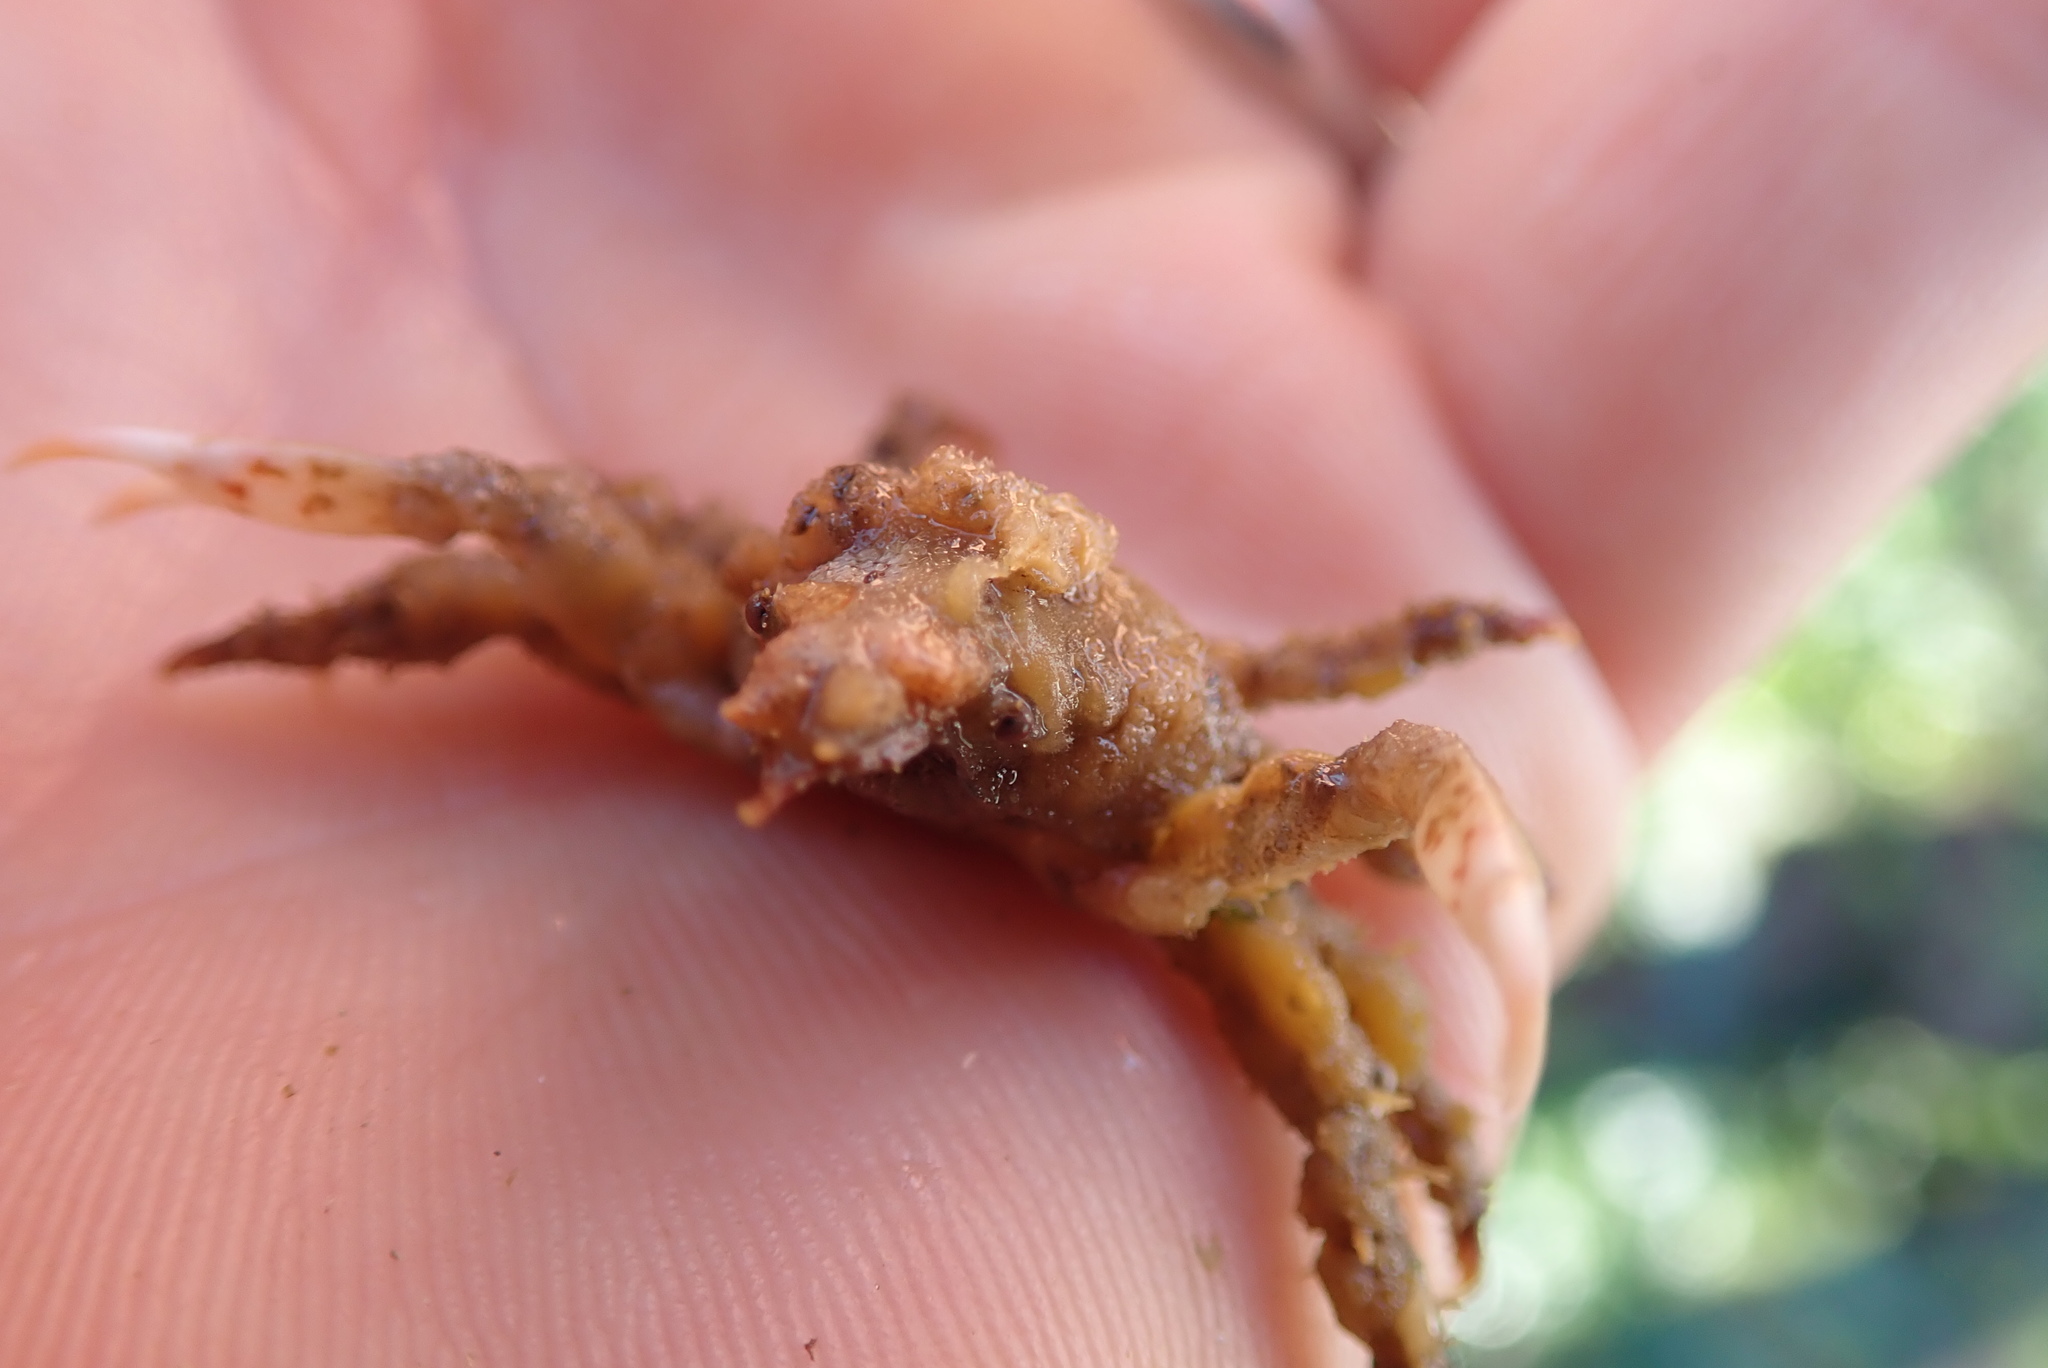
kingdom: Animalia
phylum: Arthropoda
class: Malacostraca
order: Decapoda
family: Epialtidae
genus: Scyra
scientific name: Scyra acutifrons
